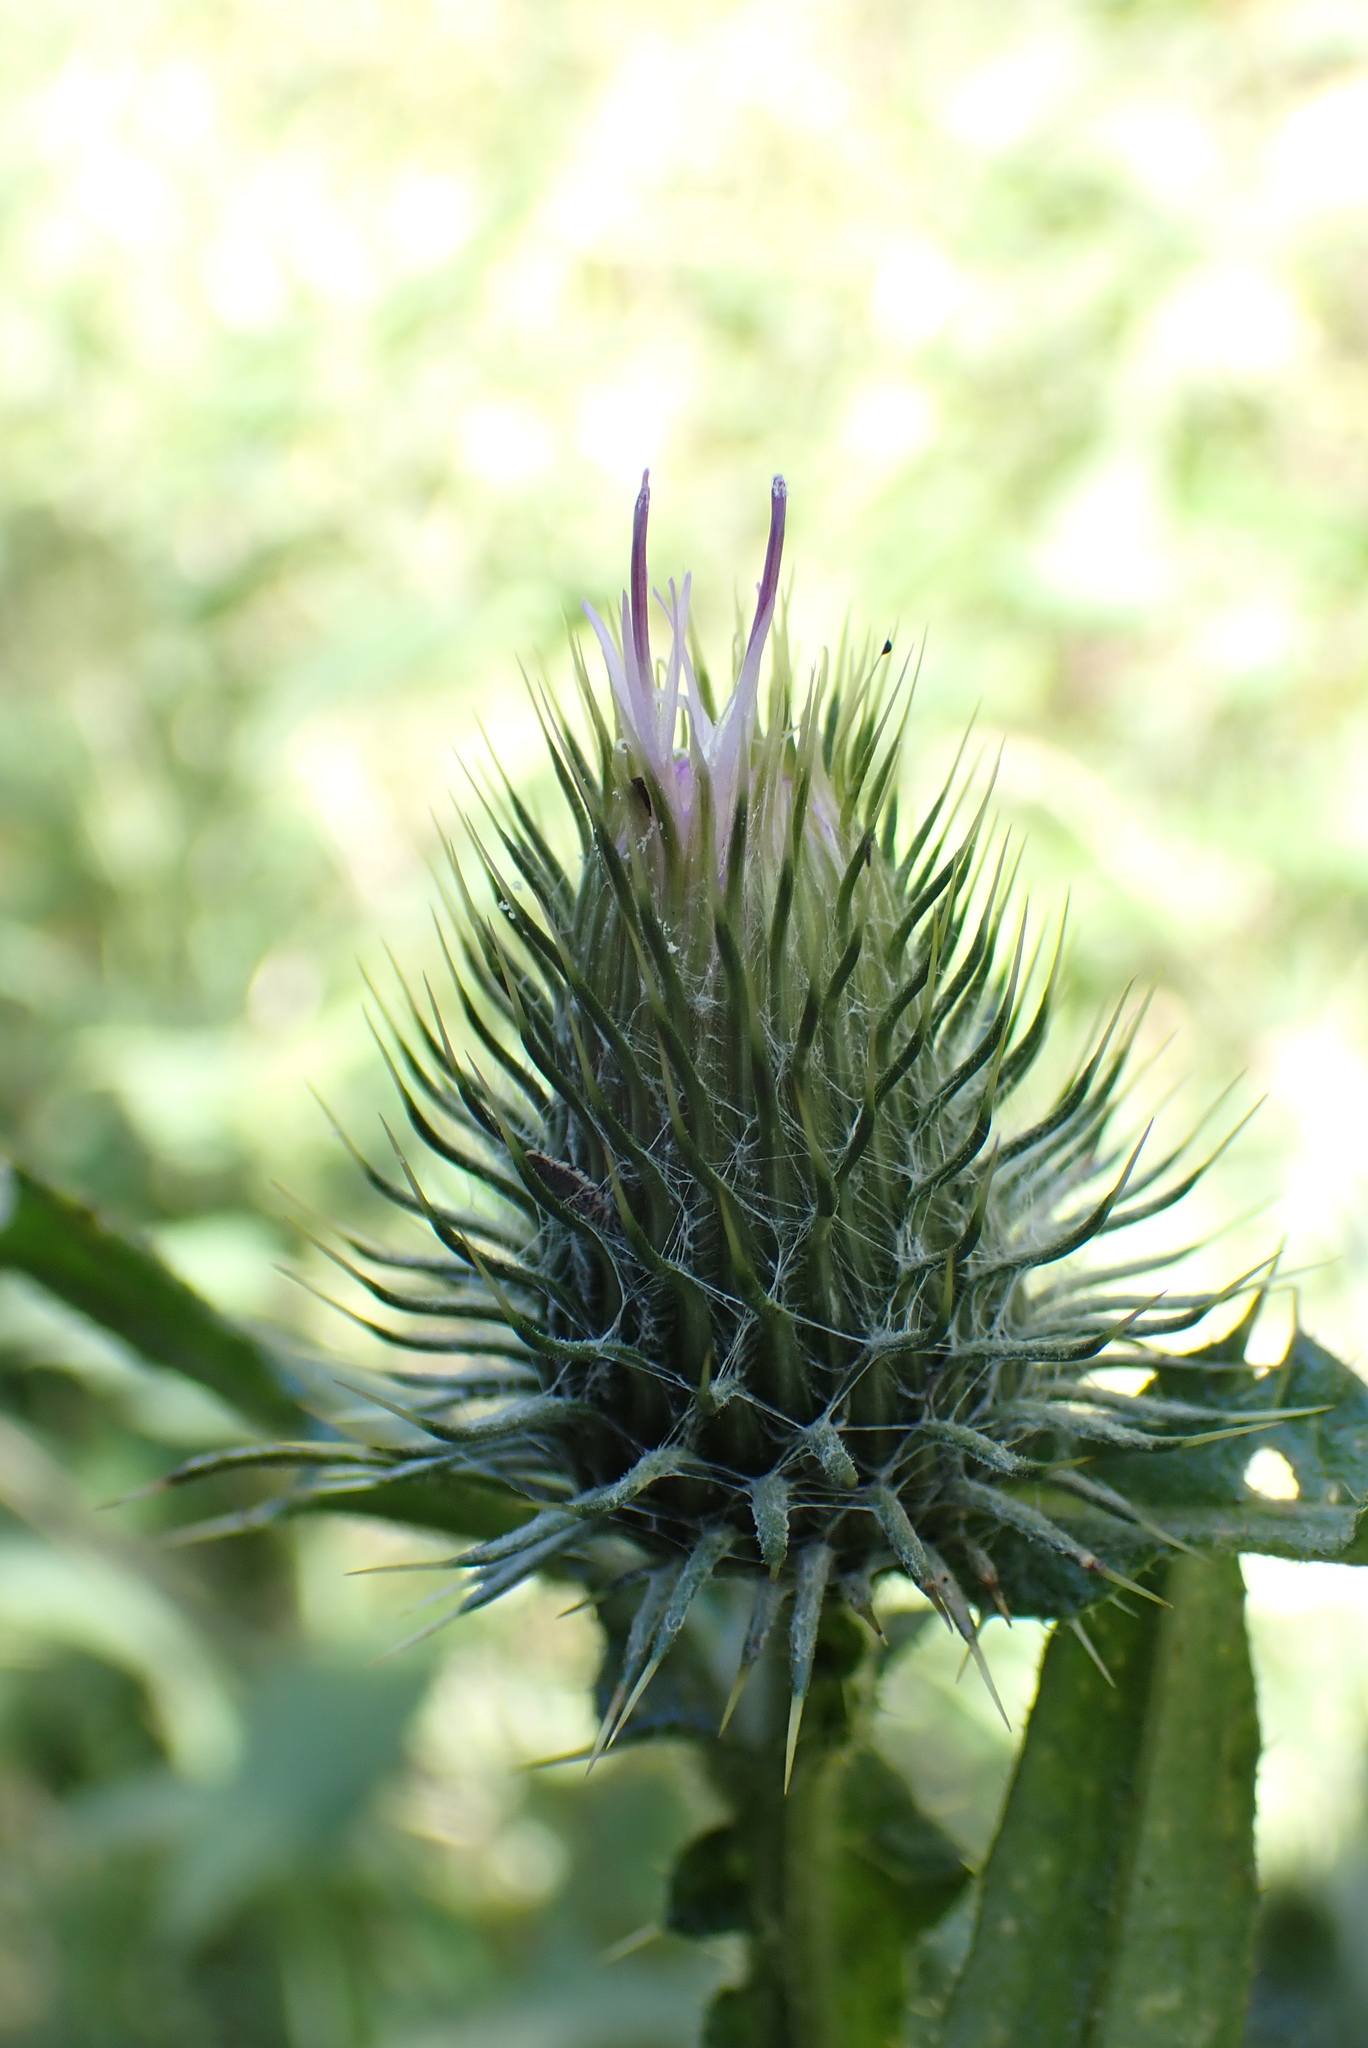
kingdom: Plantae
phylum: Tracheophyta
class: Magnoliopsida
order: Asterales
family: Asteraceae
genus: Cirsium
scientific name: Cirsium vulgare
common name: Bull thistle
